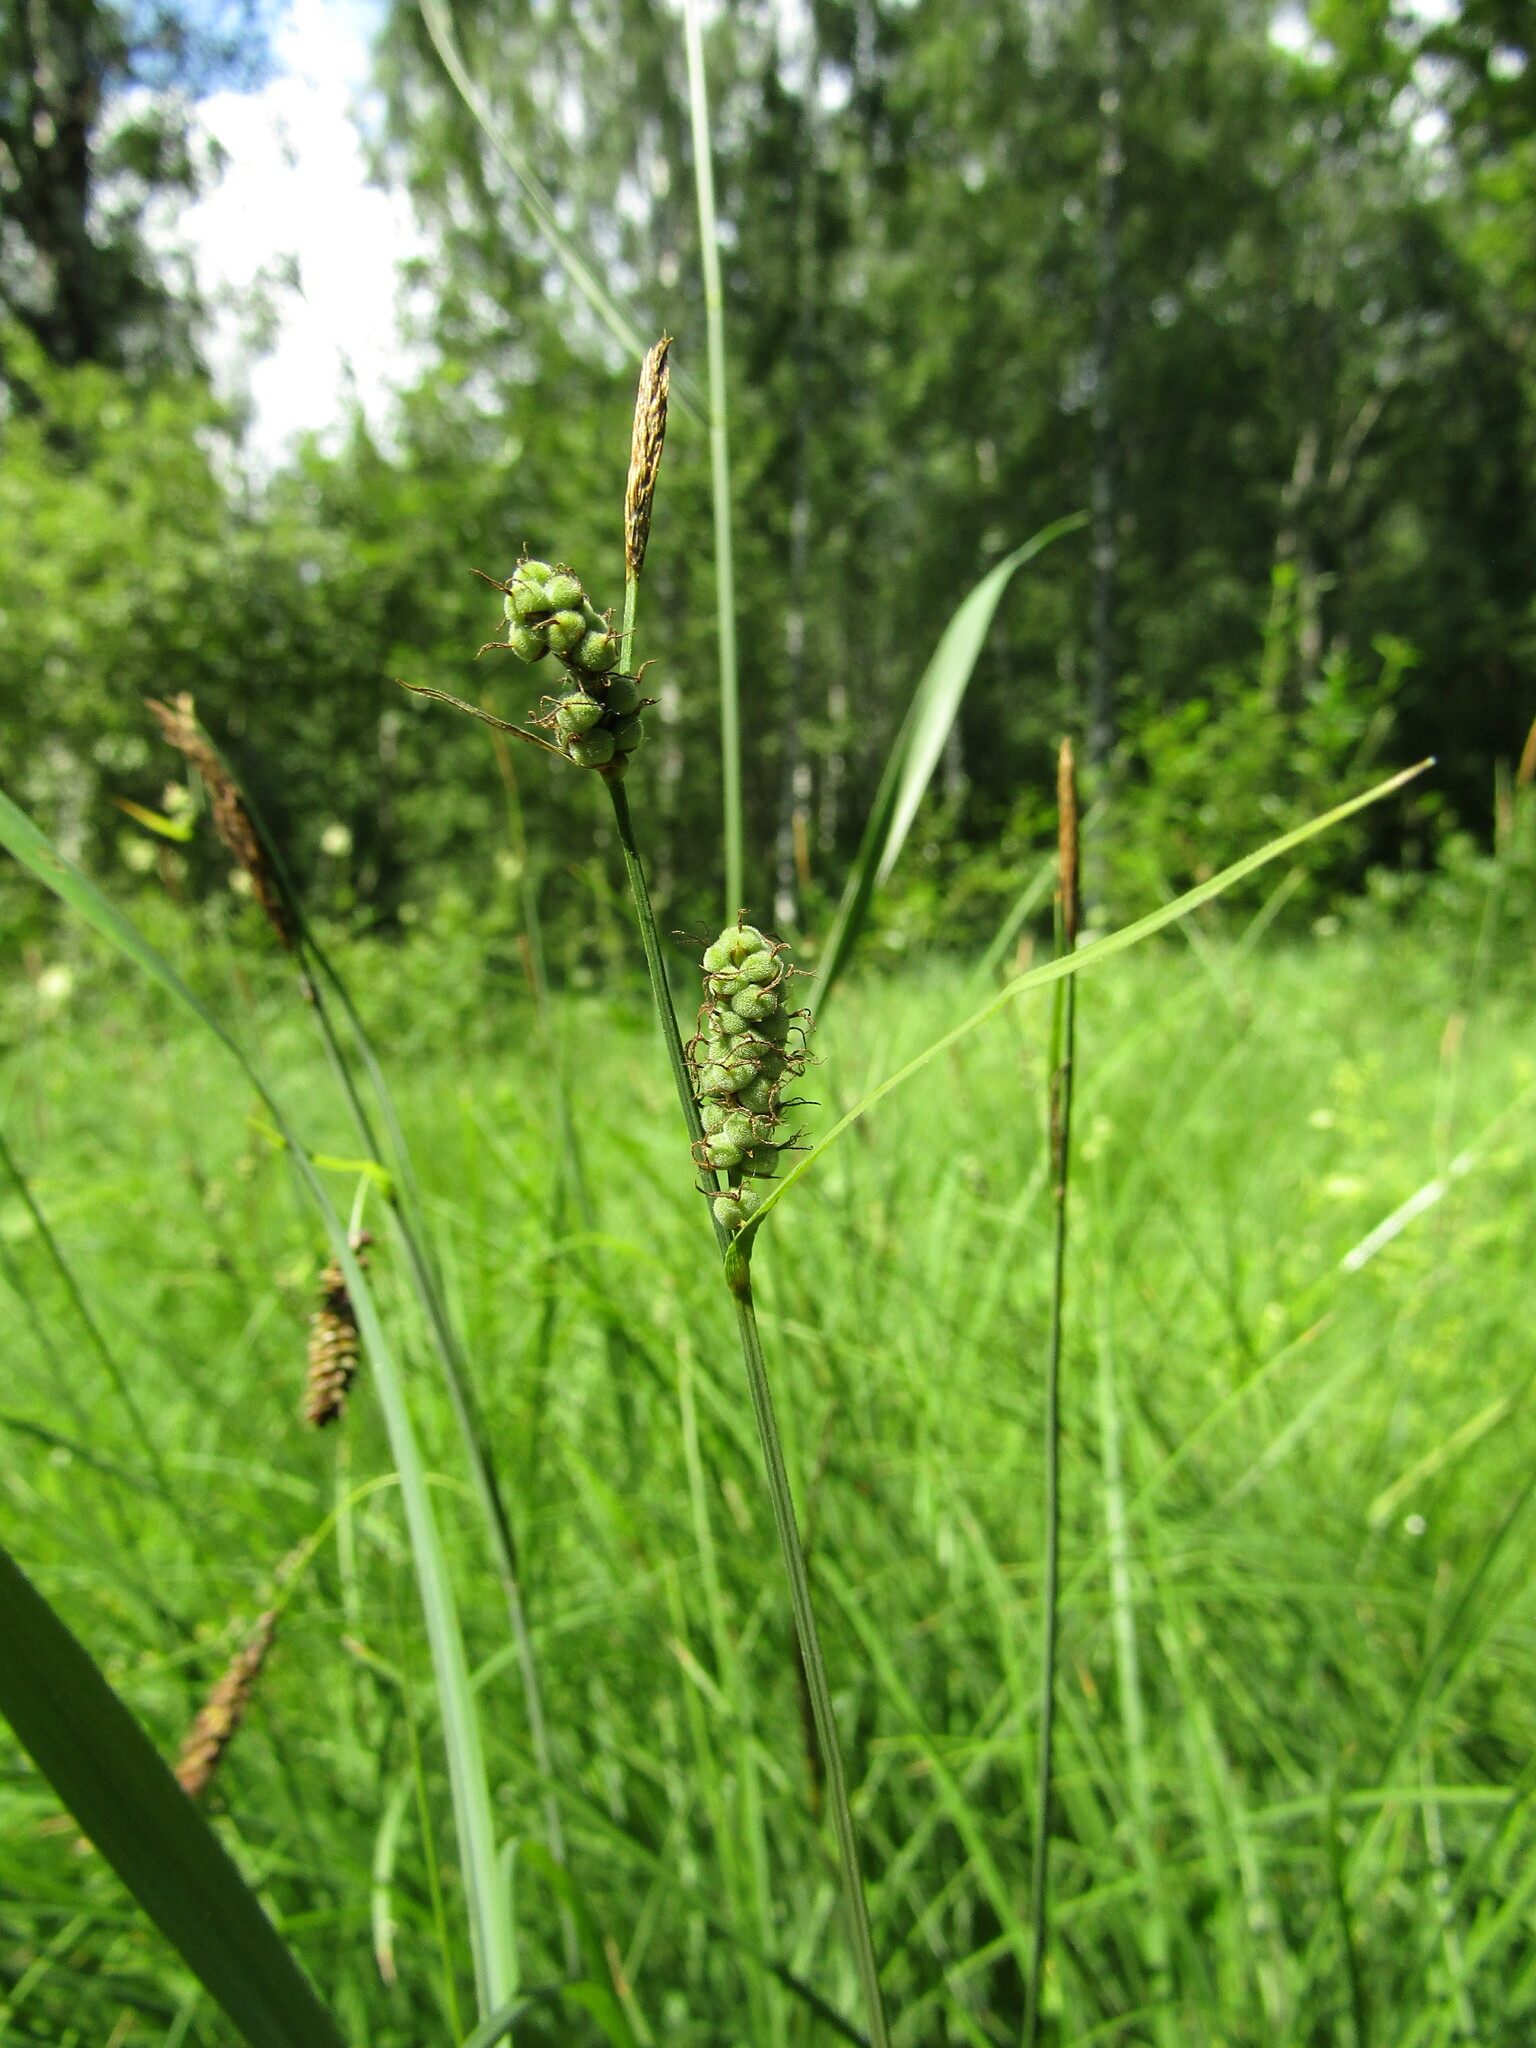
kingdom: Plantae
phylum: Tracheophyta
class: Liliopsida
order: Poales
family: Cyperaceae
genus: Carex
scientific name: Carex tomentosa
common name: Downy-fruited sedge
